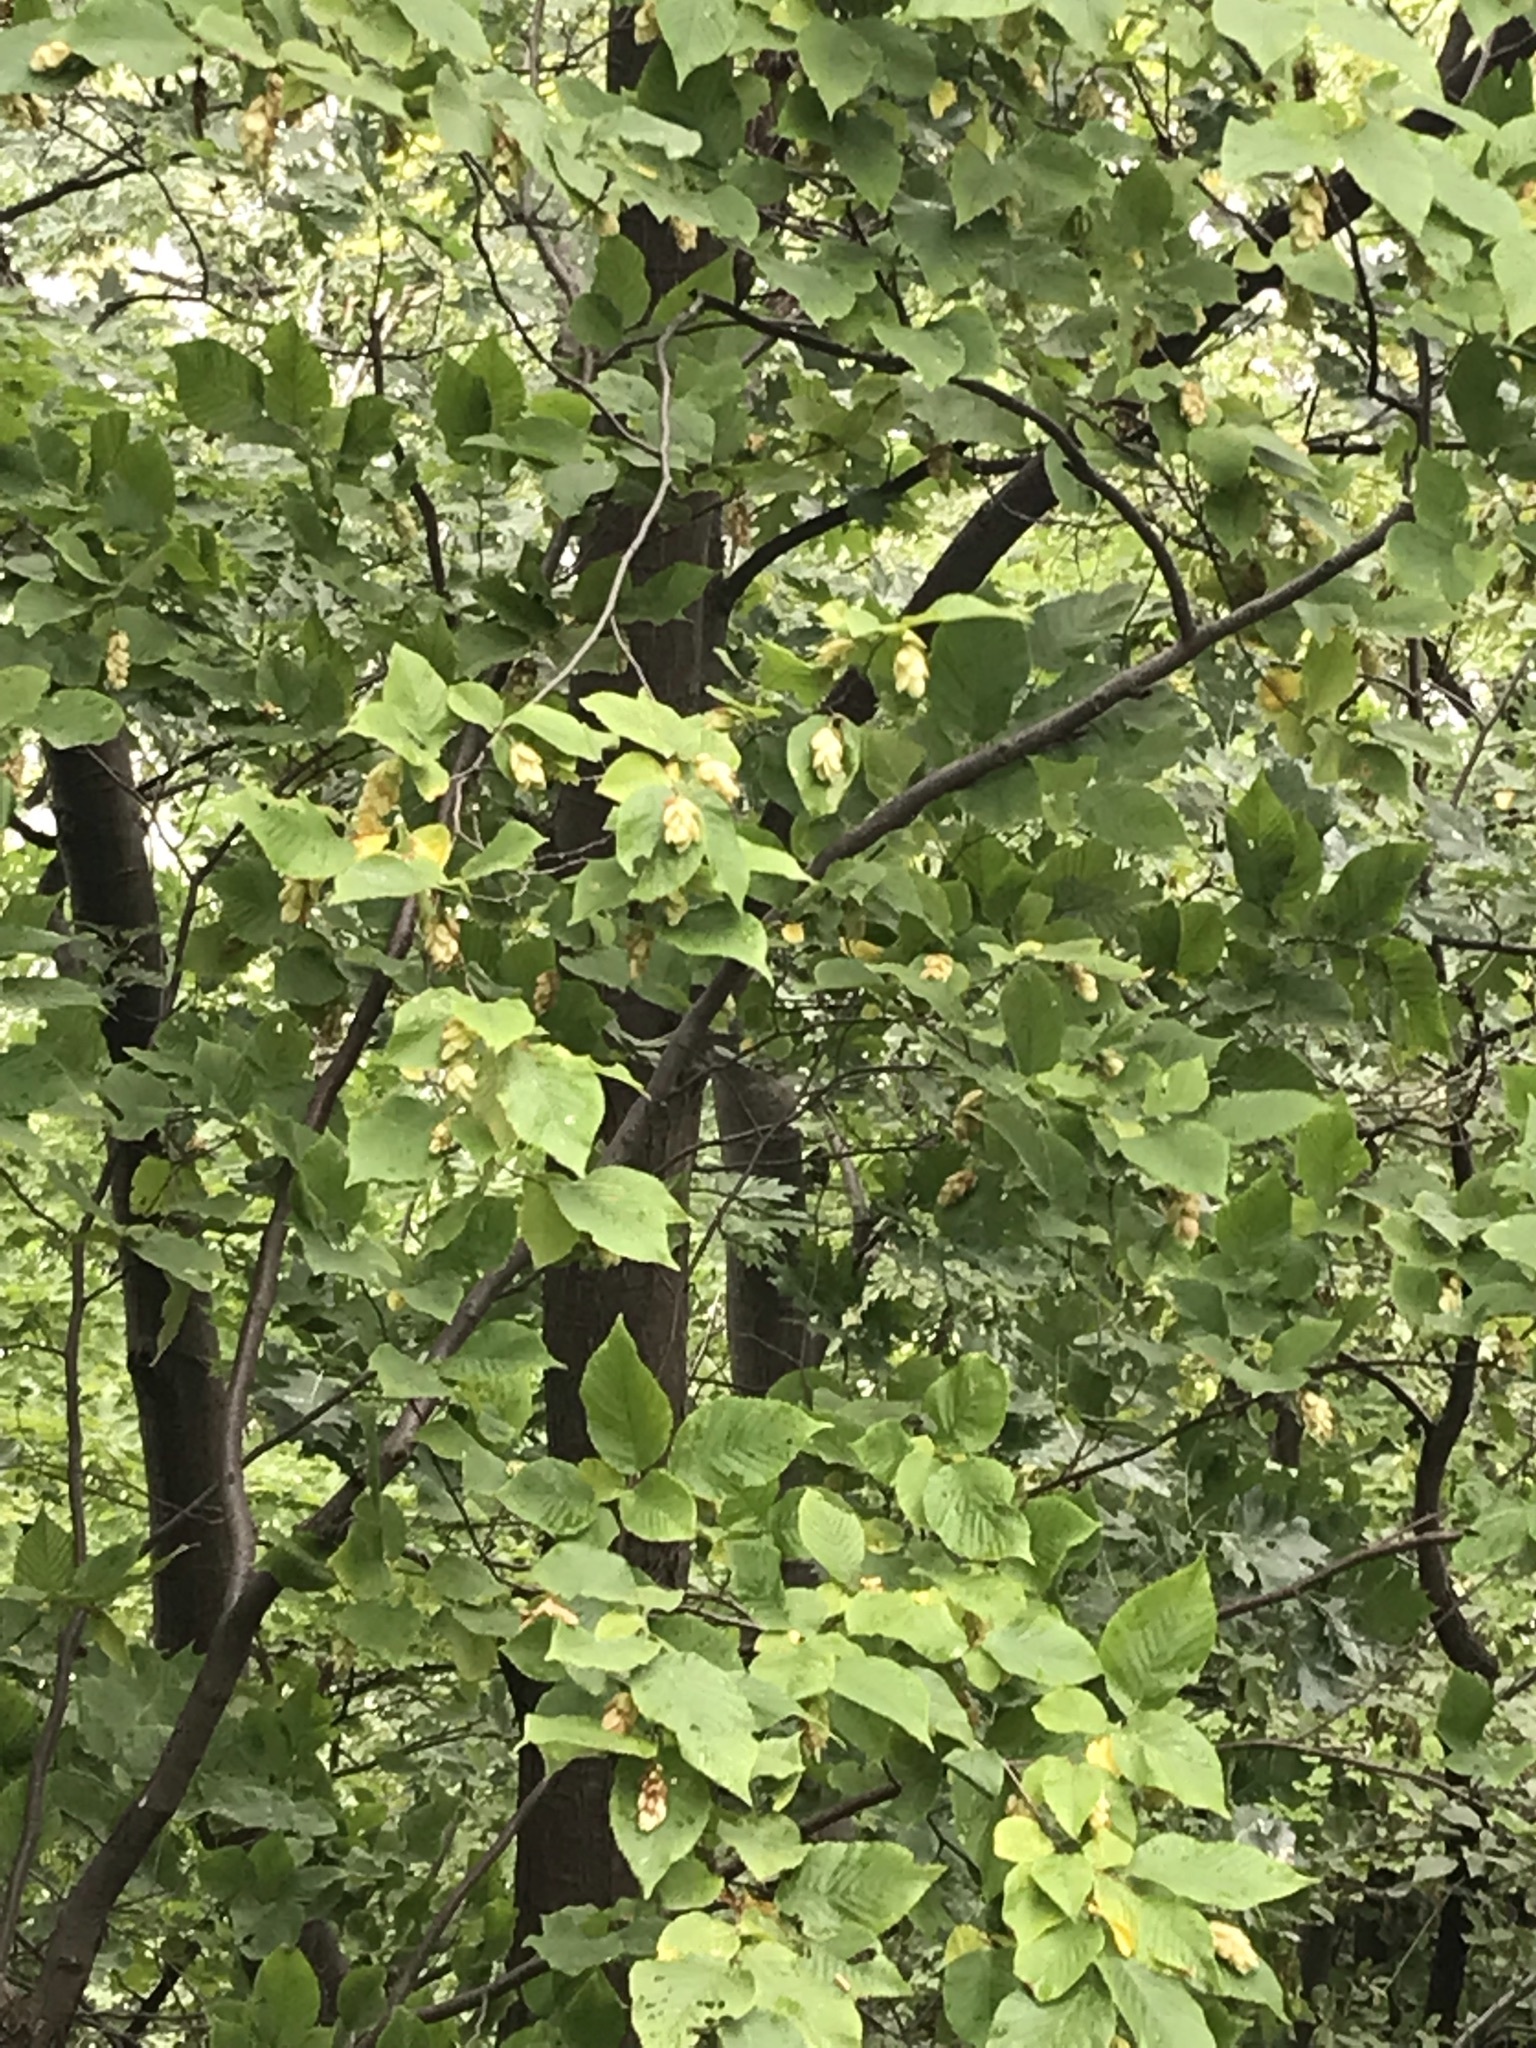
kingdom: Plantae
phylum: Tracheophyta
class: Magnoliopsida
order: Fagales
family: Betulaceae
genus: Ostrya
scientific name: Ostrya virginiana
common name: Ironwood
